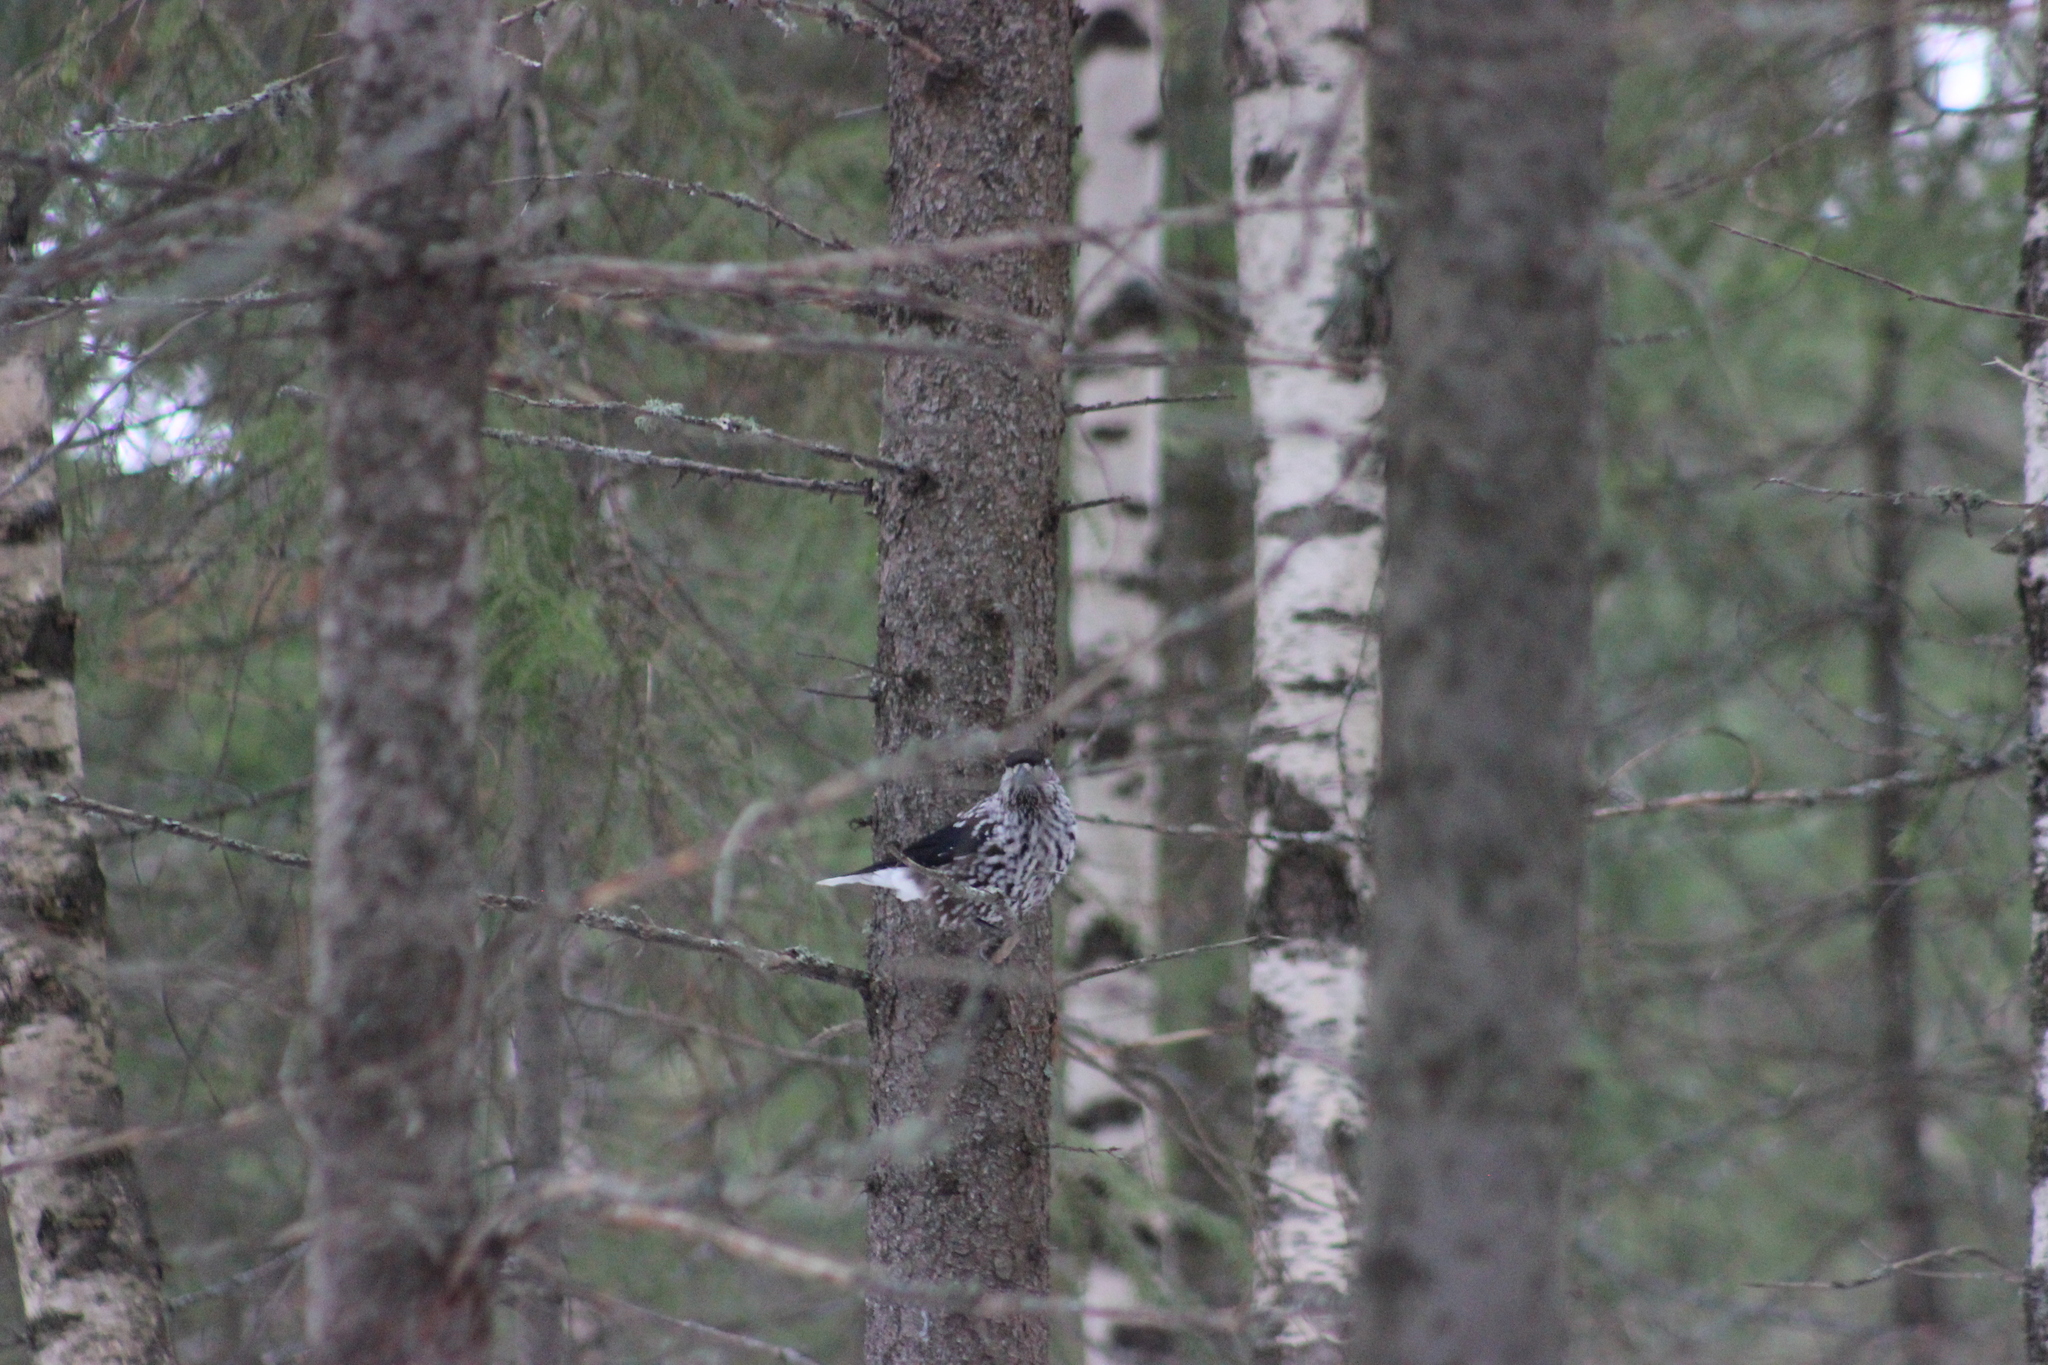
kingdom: Animalia
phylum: Chordata
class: Aves
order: Passeriformes
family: Corvidae
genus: Nucifraga
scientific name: Nucifraga caryocatactes
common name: Spotted nutcracker
